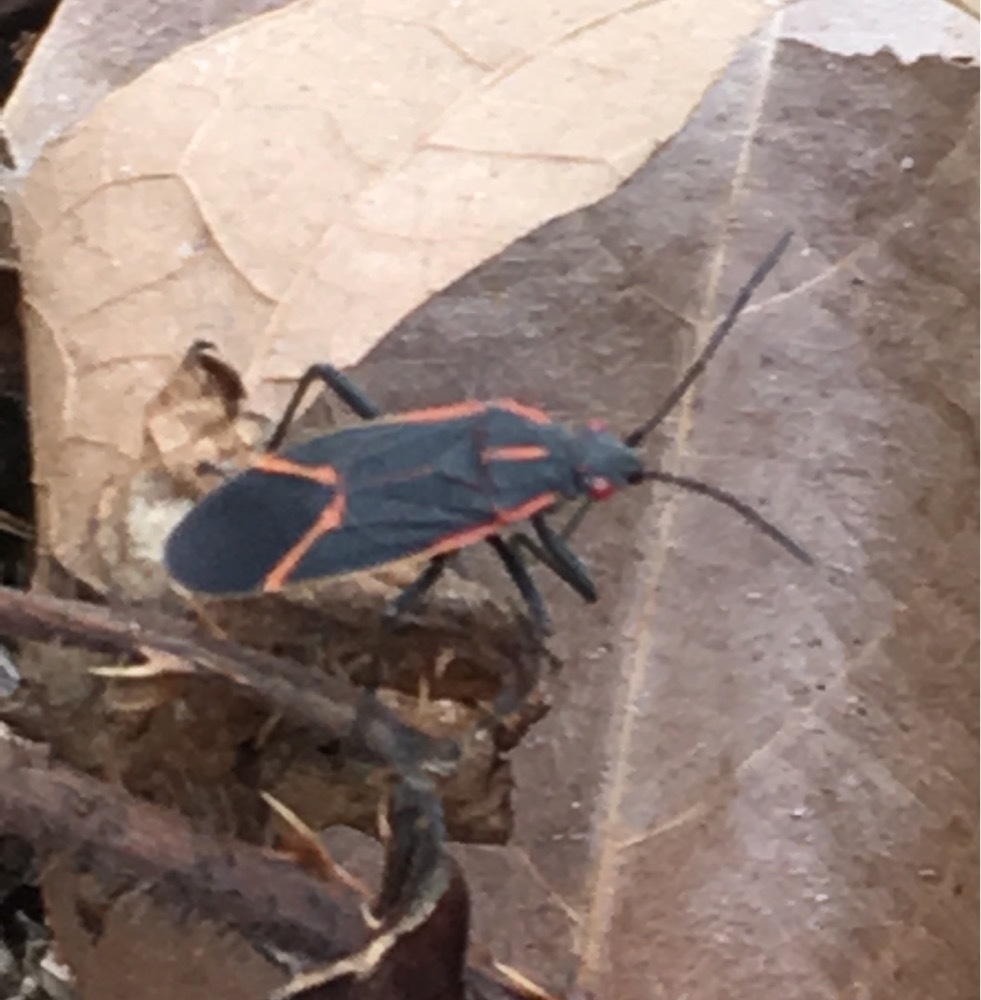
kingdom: Animalia
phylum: Arthropoda
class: Insecta
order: Hemiptera
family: Rhopalidae
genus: Boisea
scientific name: Boisea trivittata
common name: Boxelder bug
